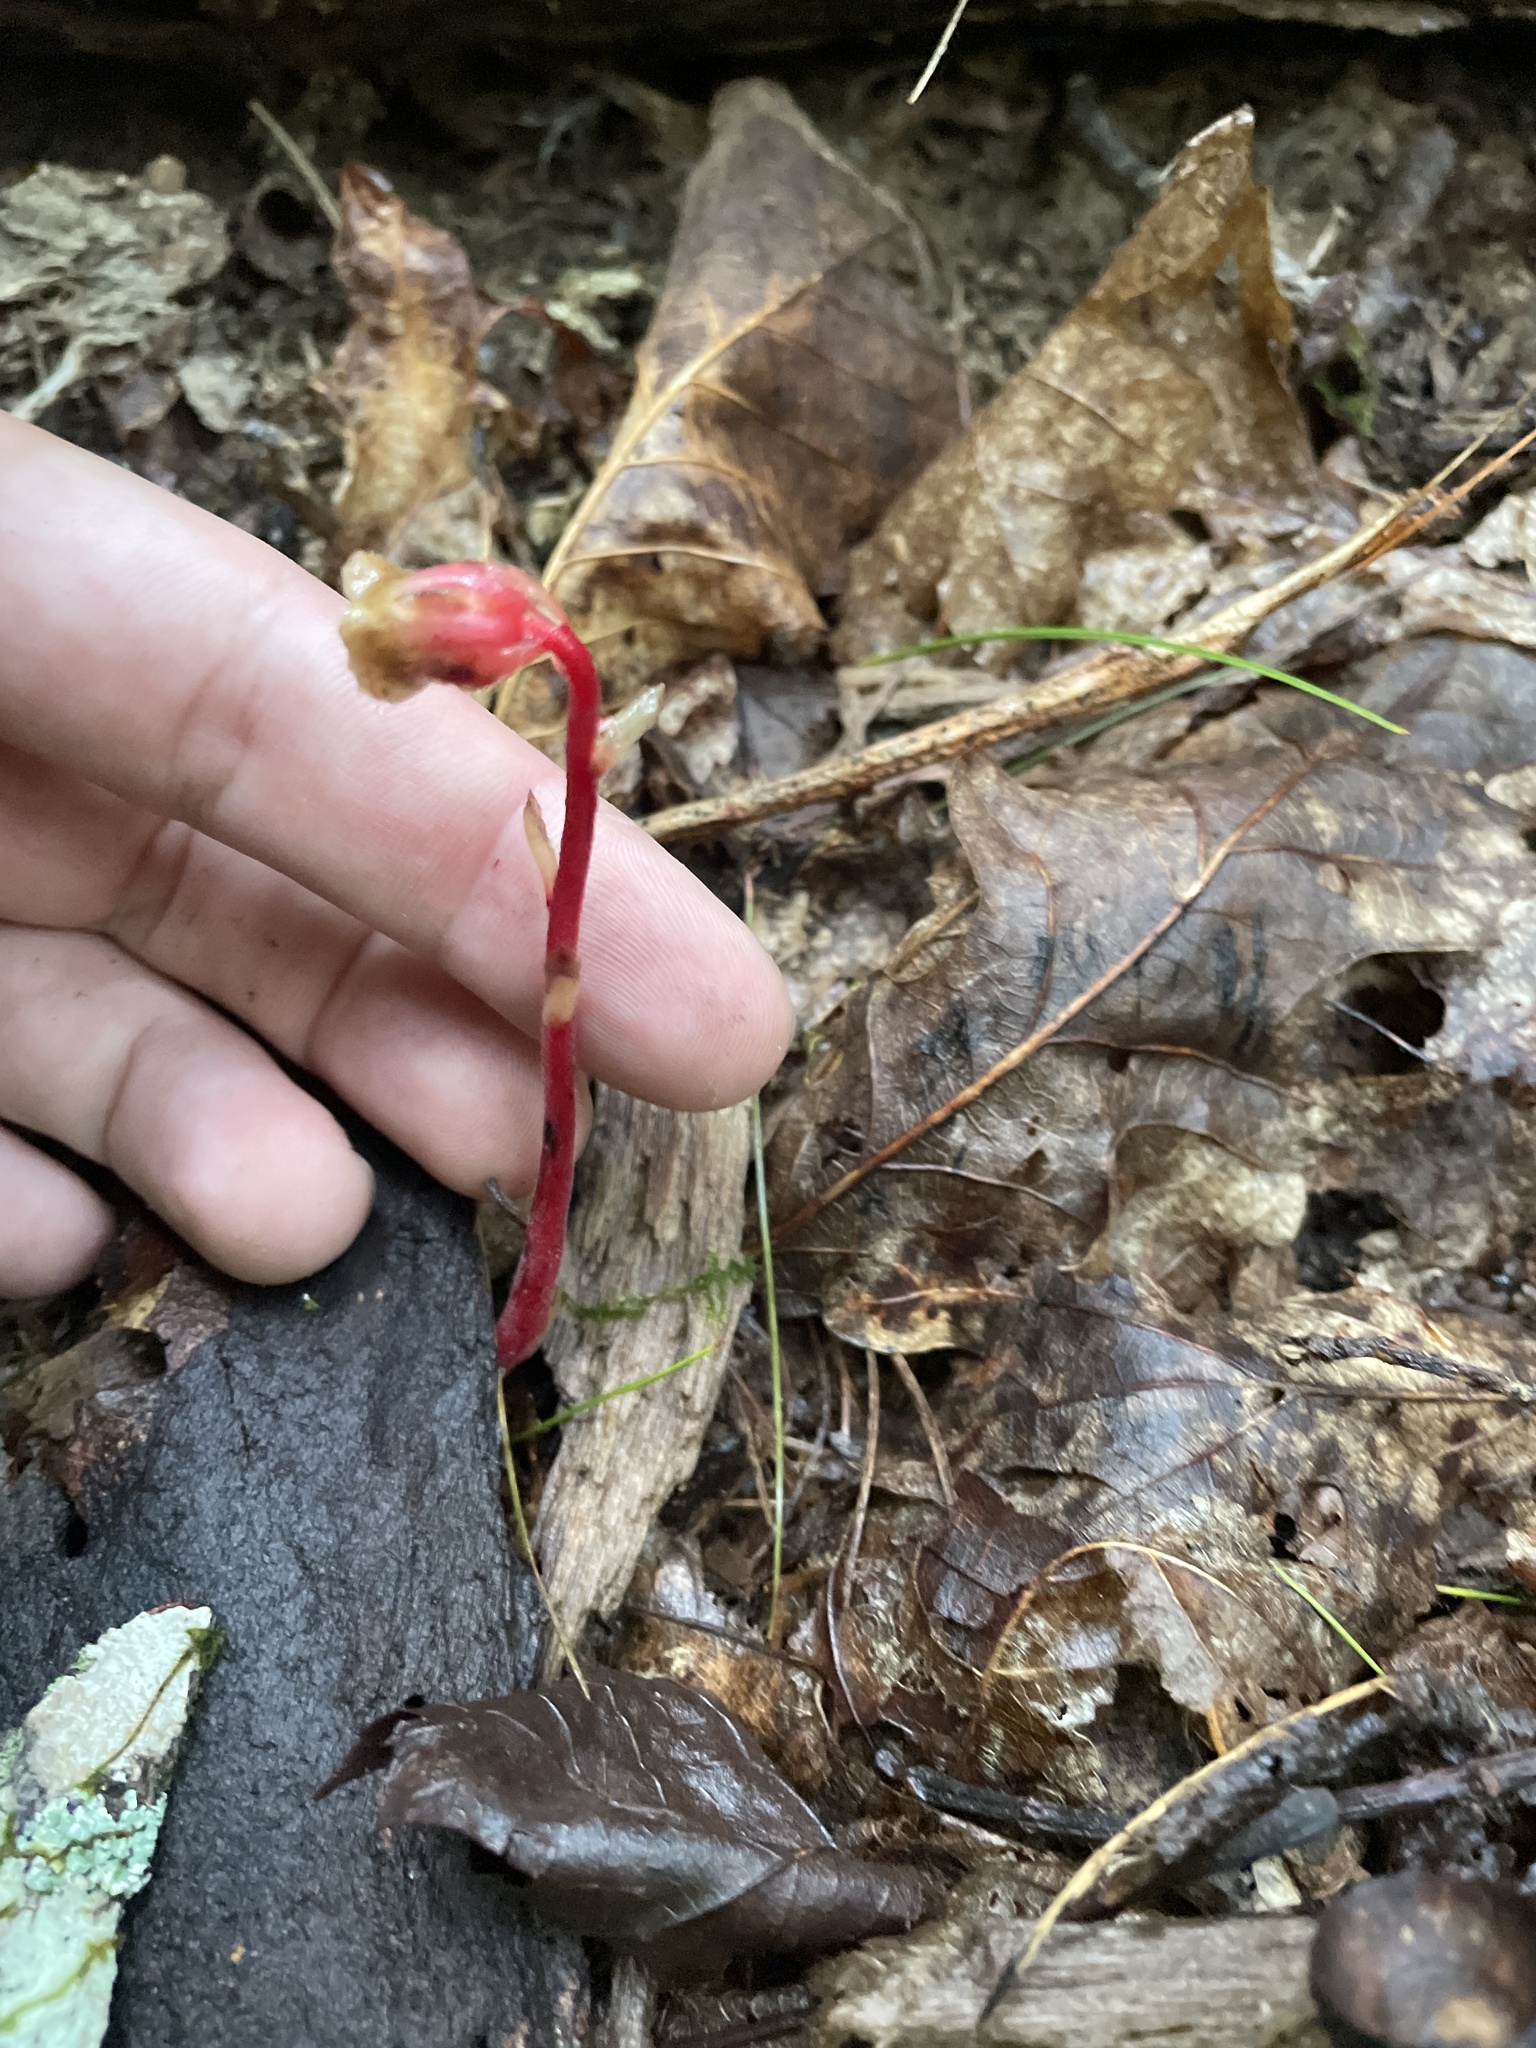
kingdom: Plantae
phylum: Tracheophyta
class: Magnoliopsida
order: Ericales
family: Ericaceae
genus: Hypopitys
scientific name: Hypopitys monotropa
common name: Yellow bird's-nest
